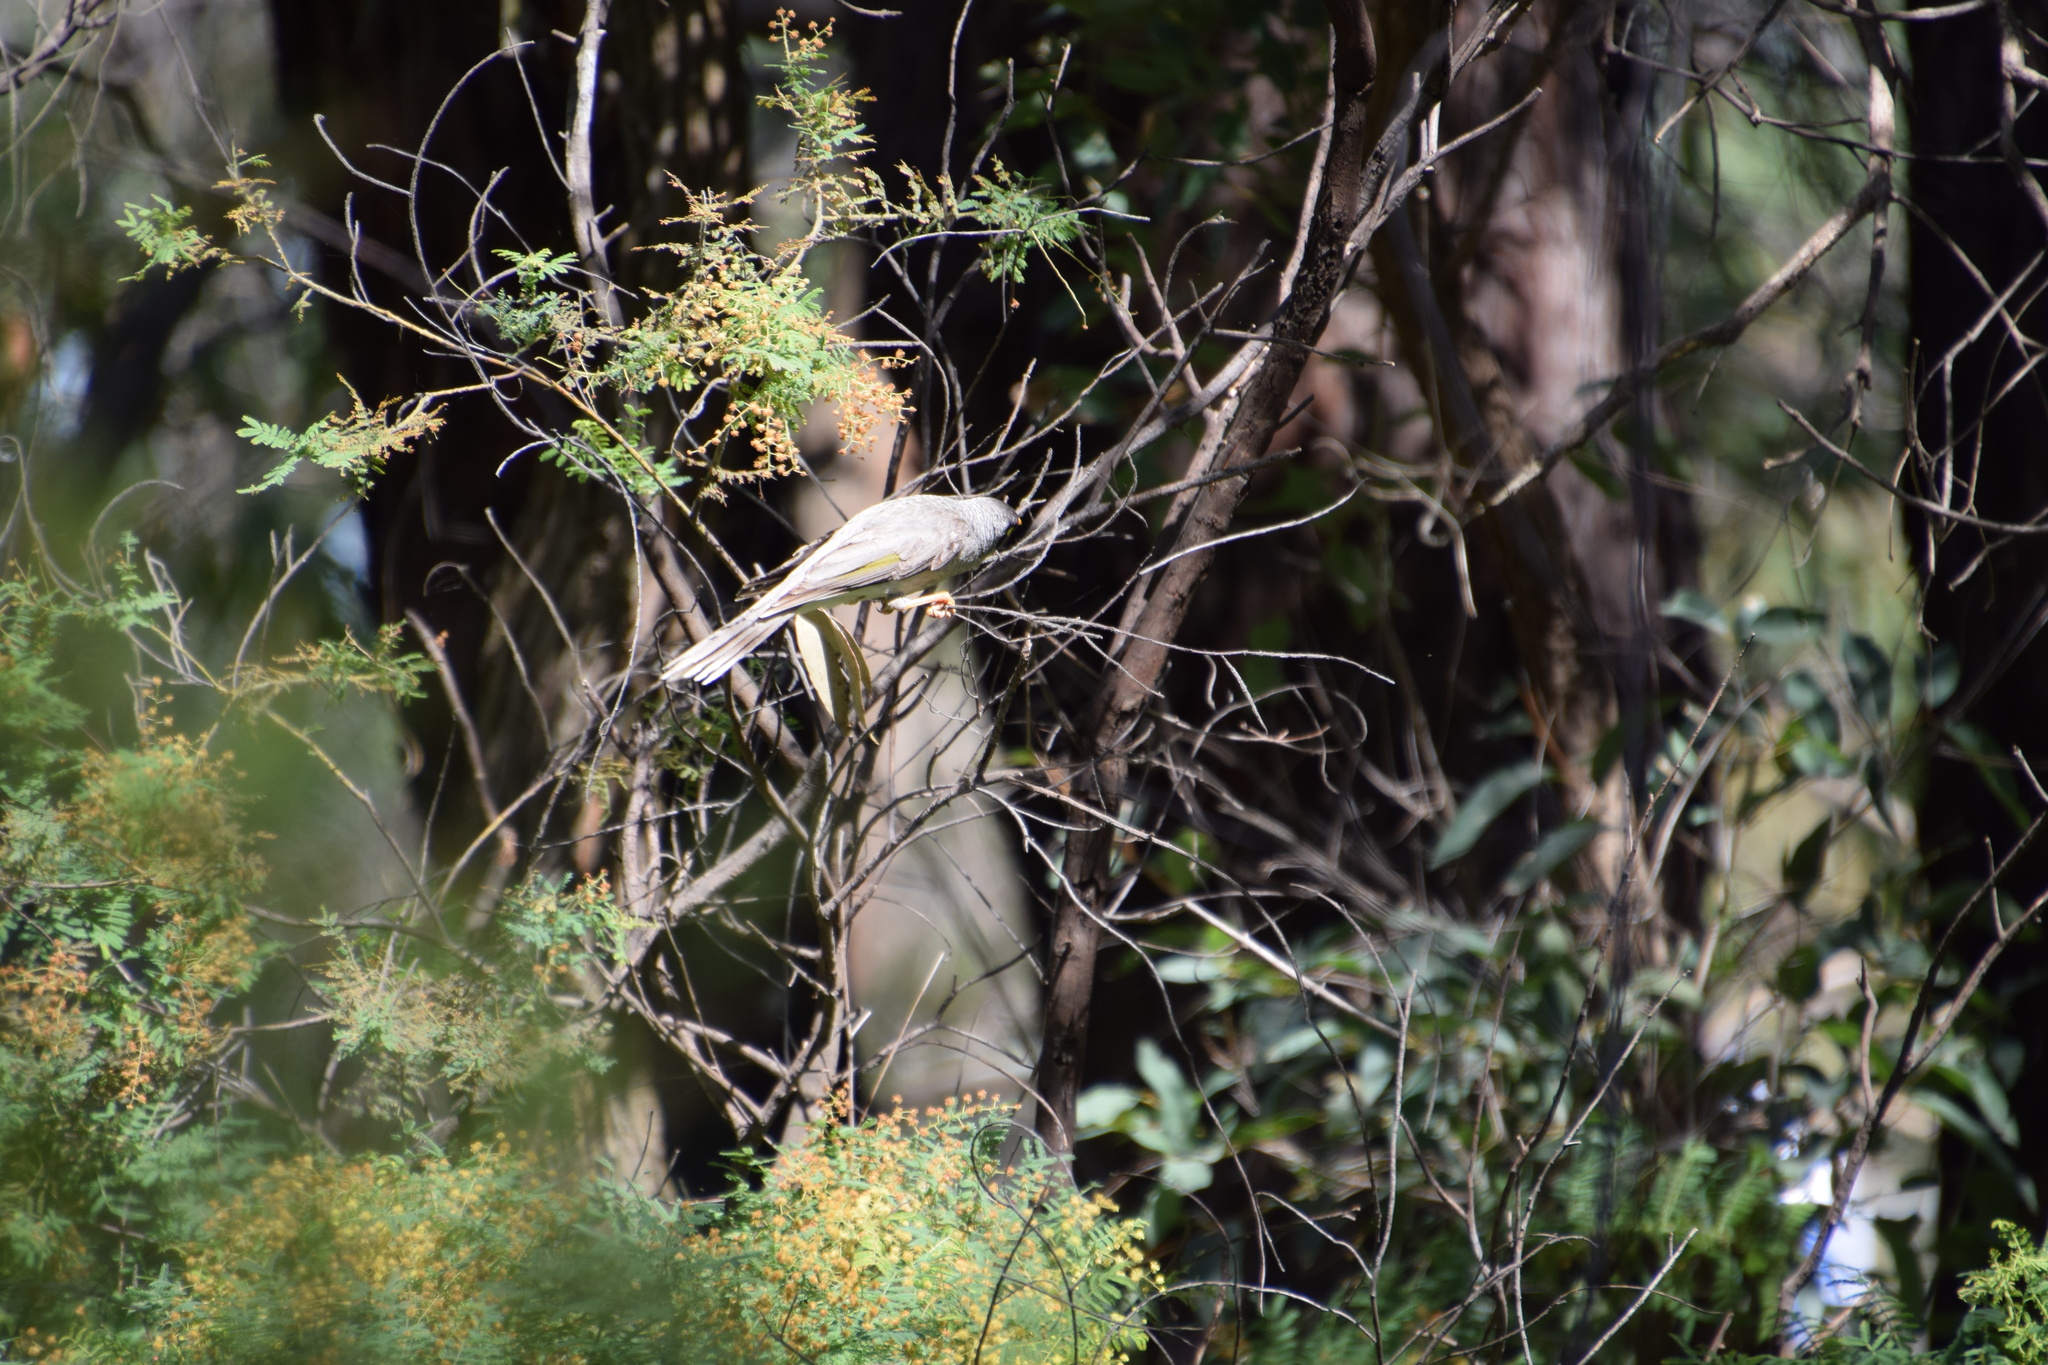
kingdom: Animalia
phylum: Chordata
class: Aves
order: Passeriformes
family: Meliphagidae
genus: Manorina
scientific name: Manorina melanocephala
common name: Noisy miner
